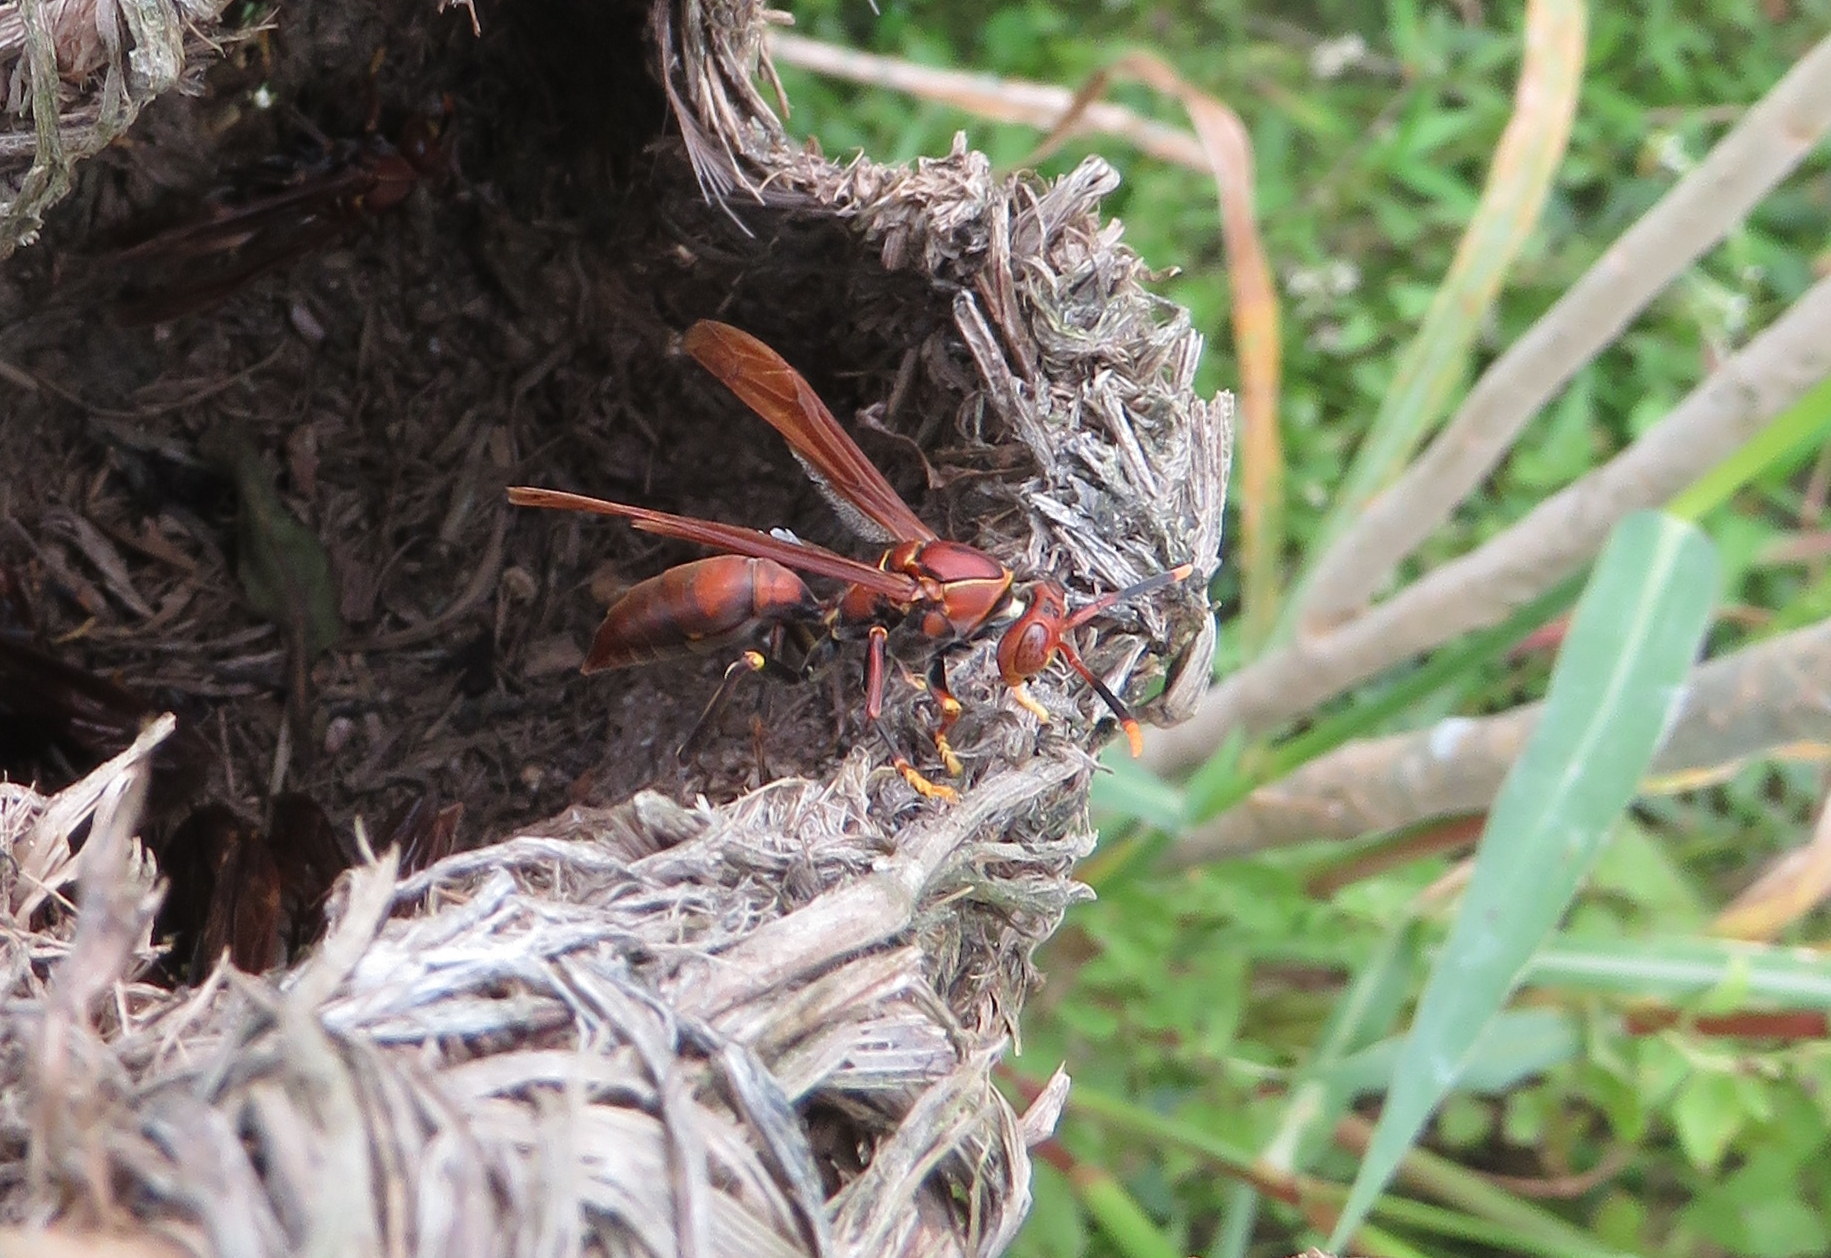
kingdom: Animalia
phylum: Arthropoda
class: Insecta
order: Hymenoptera
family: Pompilidae
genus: Aphanilopterus
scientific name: Aphanilopterus
